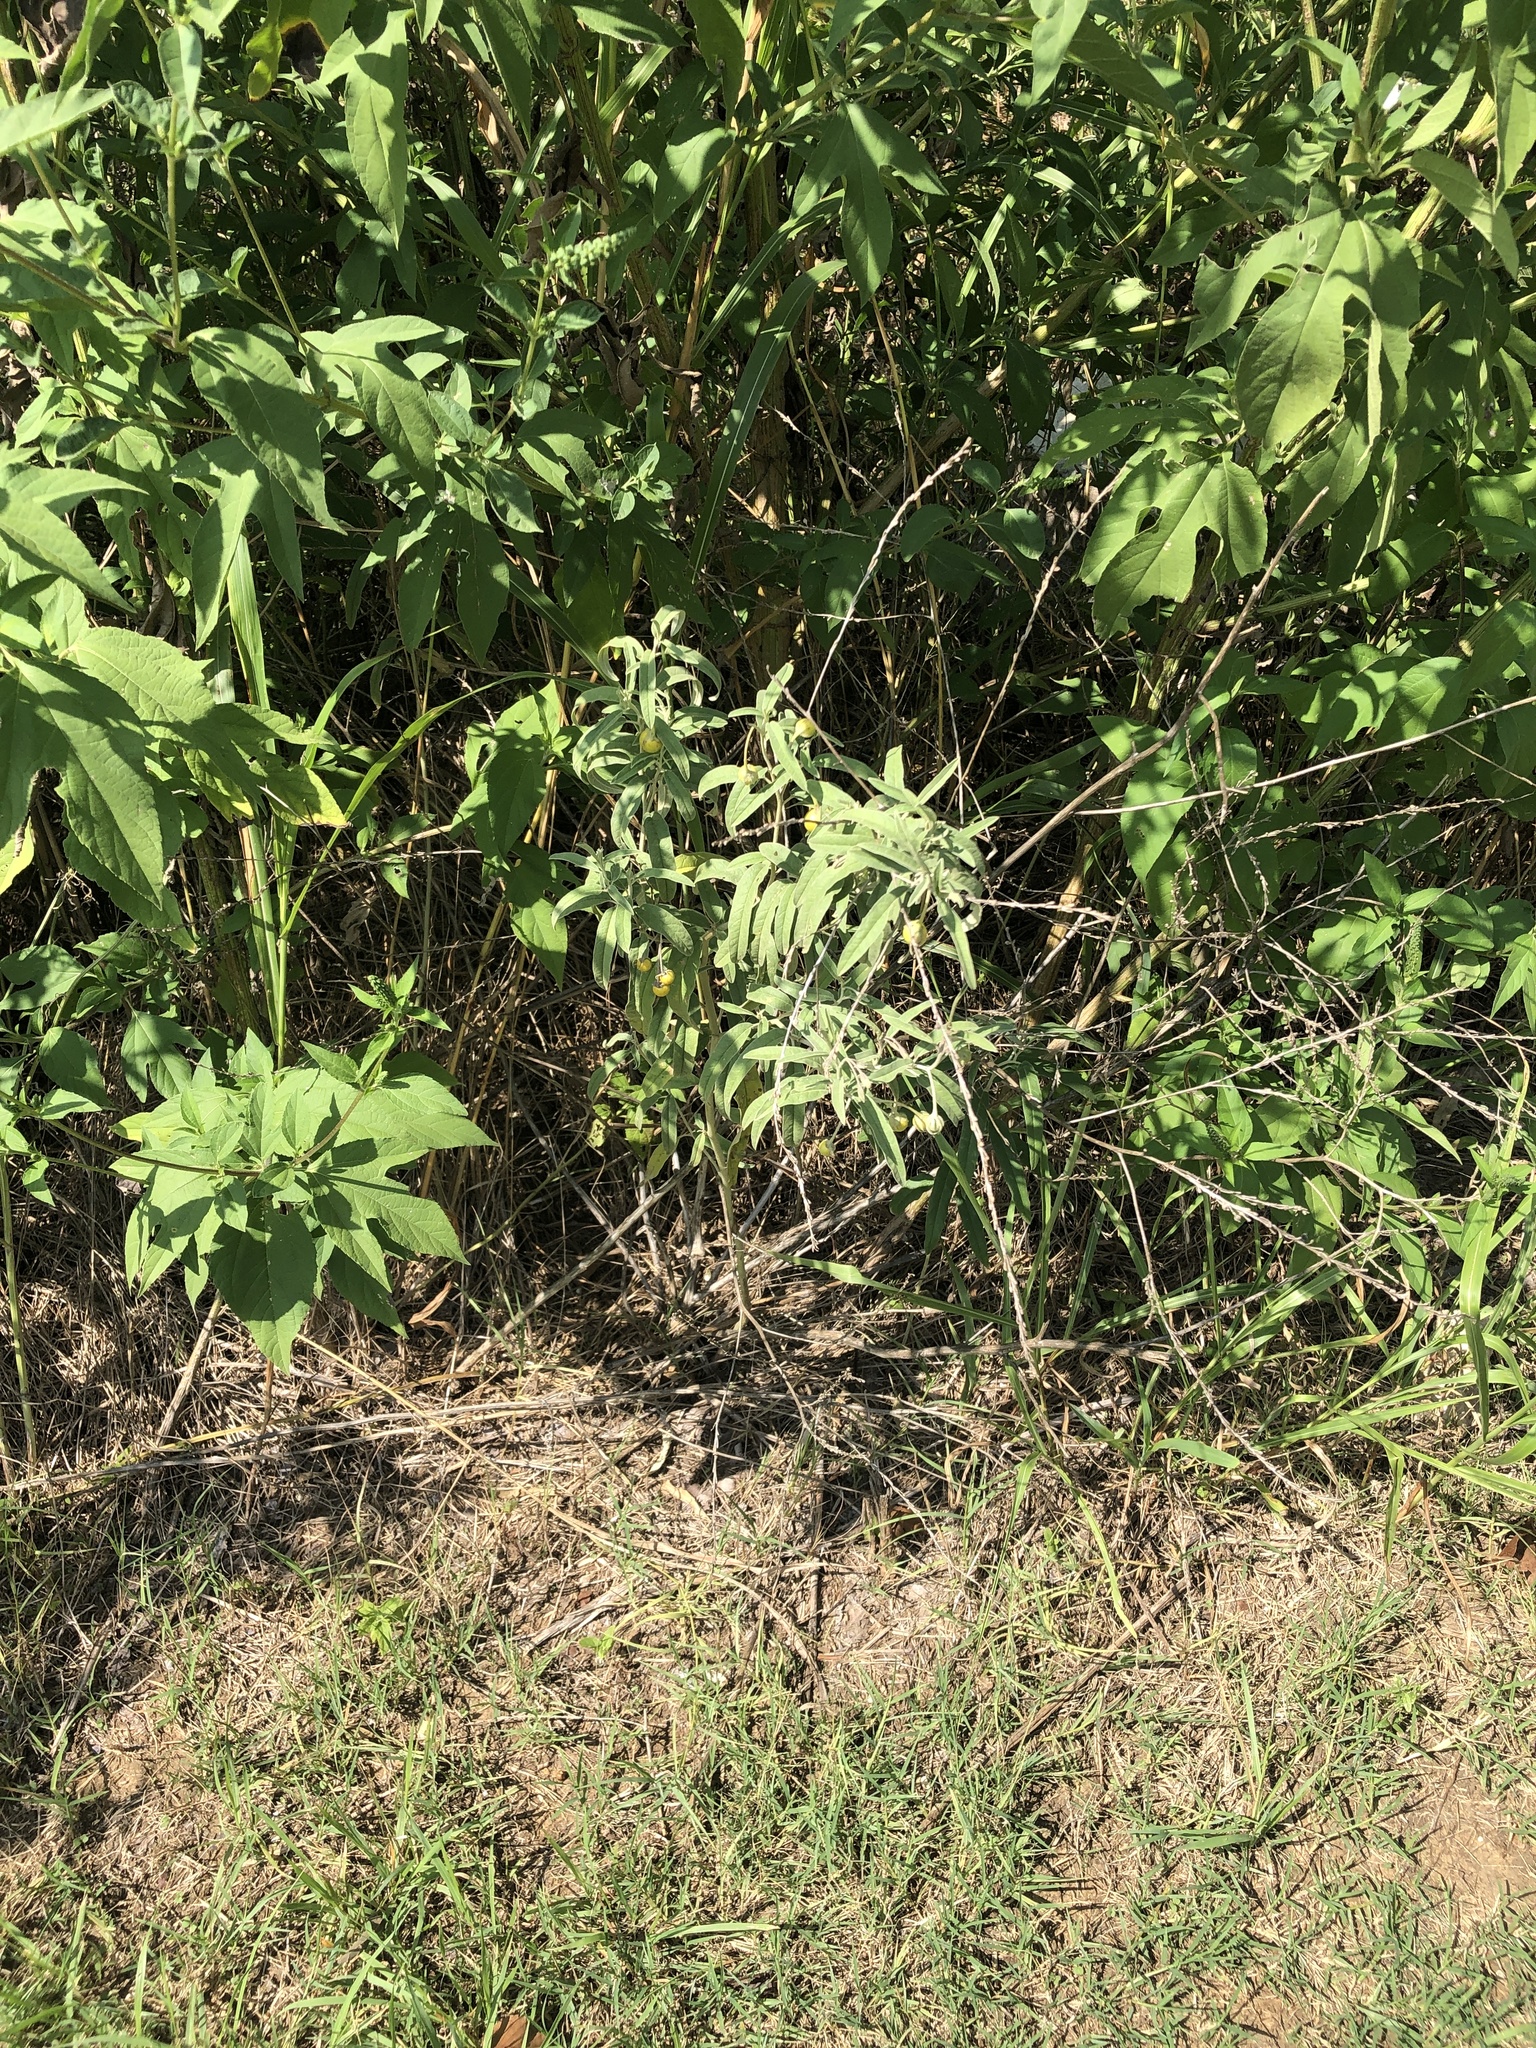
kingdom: Plantae
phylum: Tracheophyta
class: Magnoliopsida
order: Solanales
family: Solanaceae
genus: Solanum
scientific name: Solanum elaeagnifolium
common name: Silverleaf nightshade
